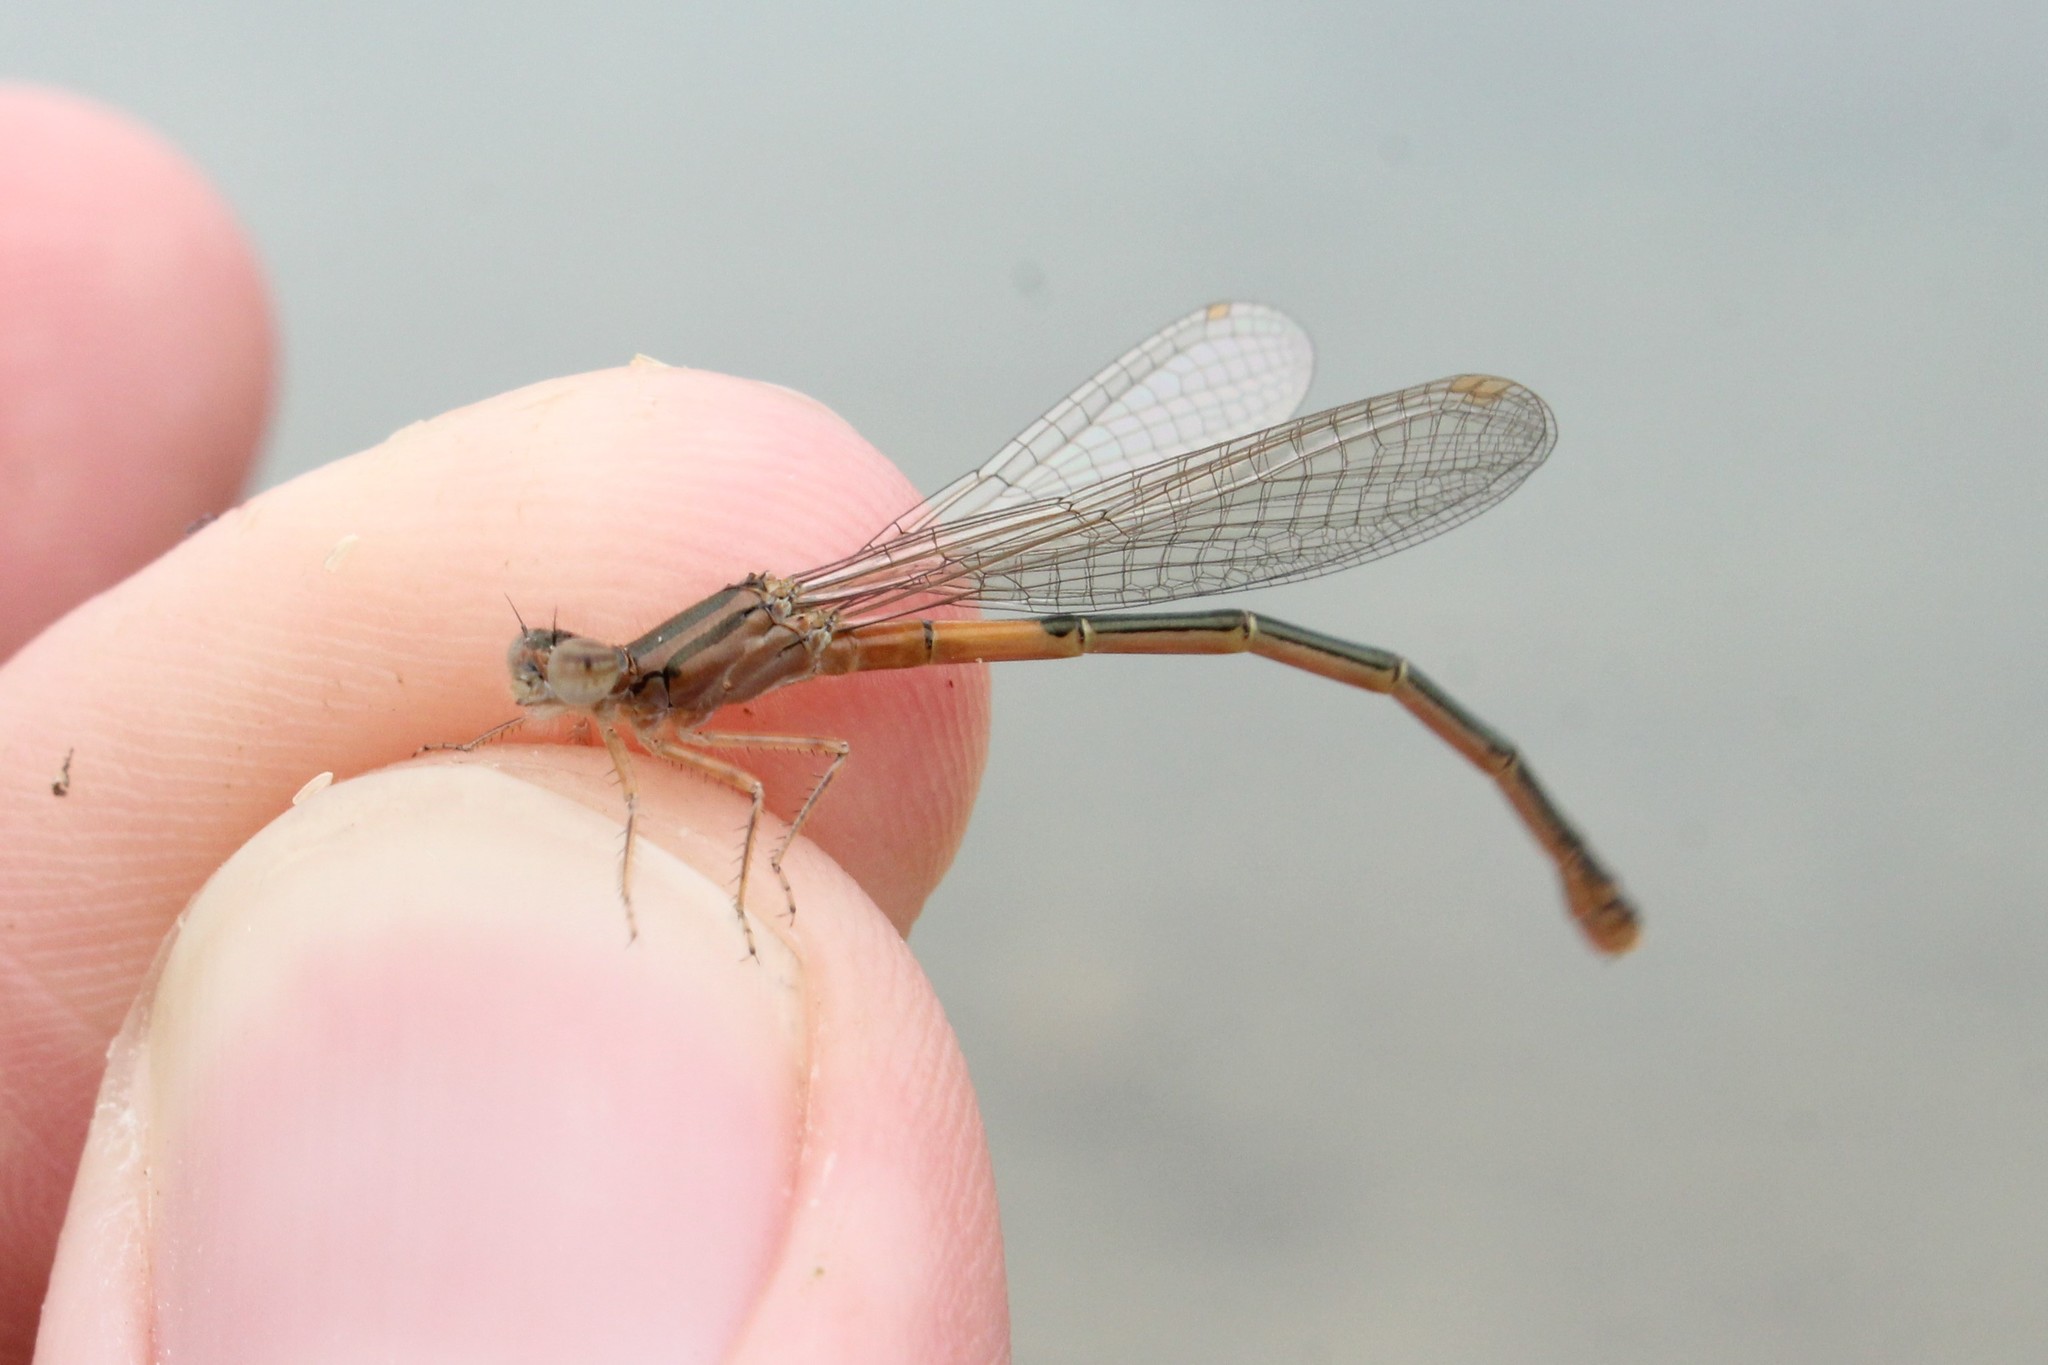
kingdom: Animalia
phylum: Arthropoda
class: Insecta
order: Odonata
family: Coenagrionidae
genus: Ischnura
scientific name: Ischnura verticalis
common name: Eastern forktail
